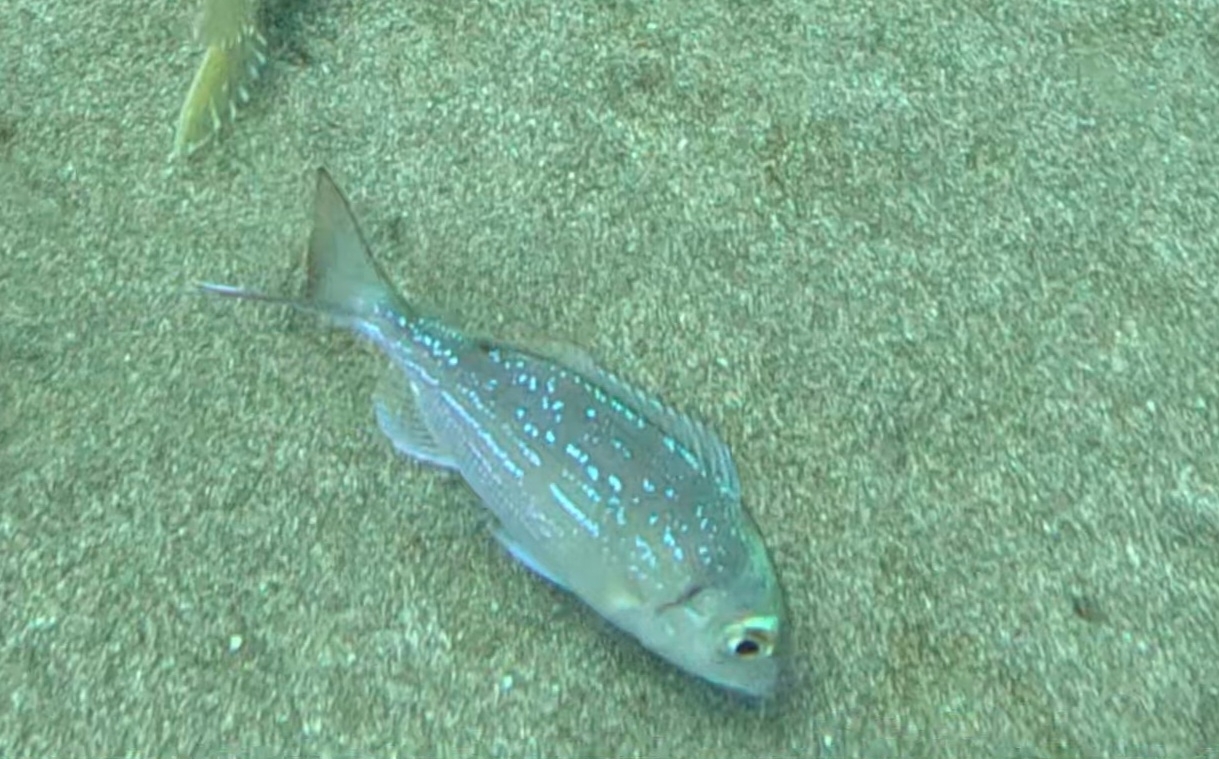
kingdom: Animalia
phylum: Chordata
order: Perciformes
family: Sparidae
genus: Pagellus
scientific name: Pagellus erythrinus
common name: Pandora
